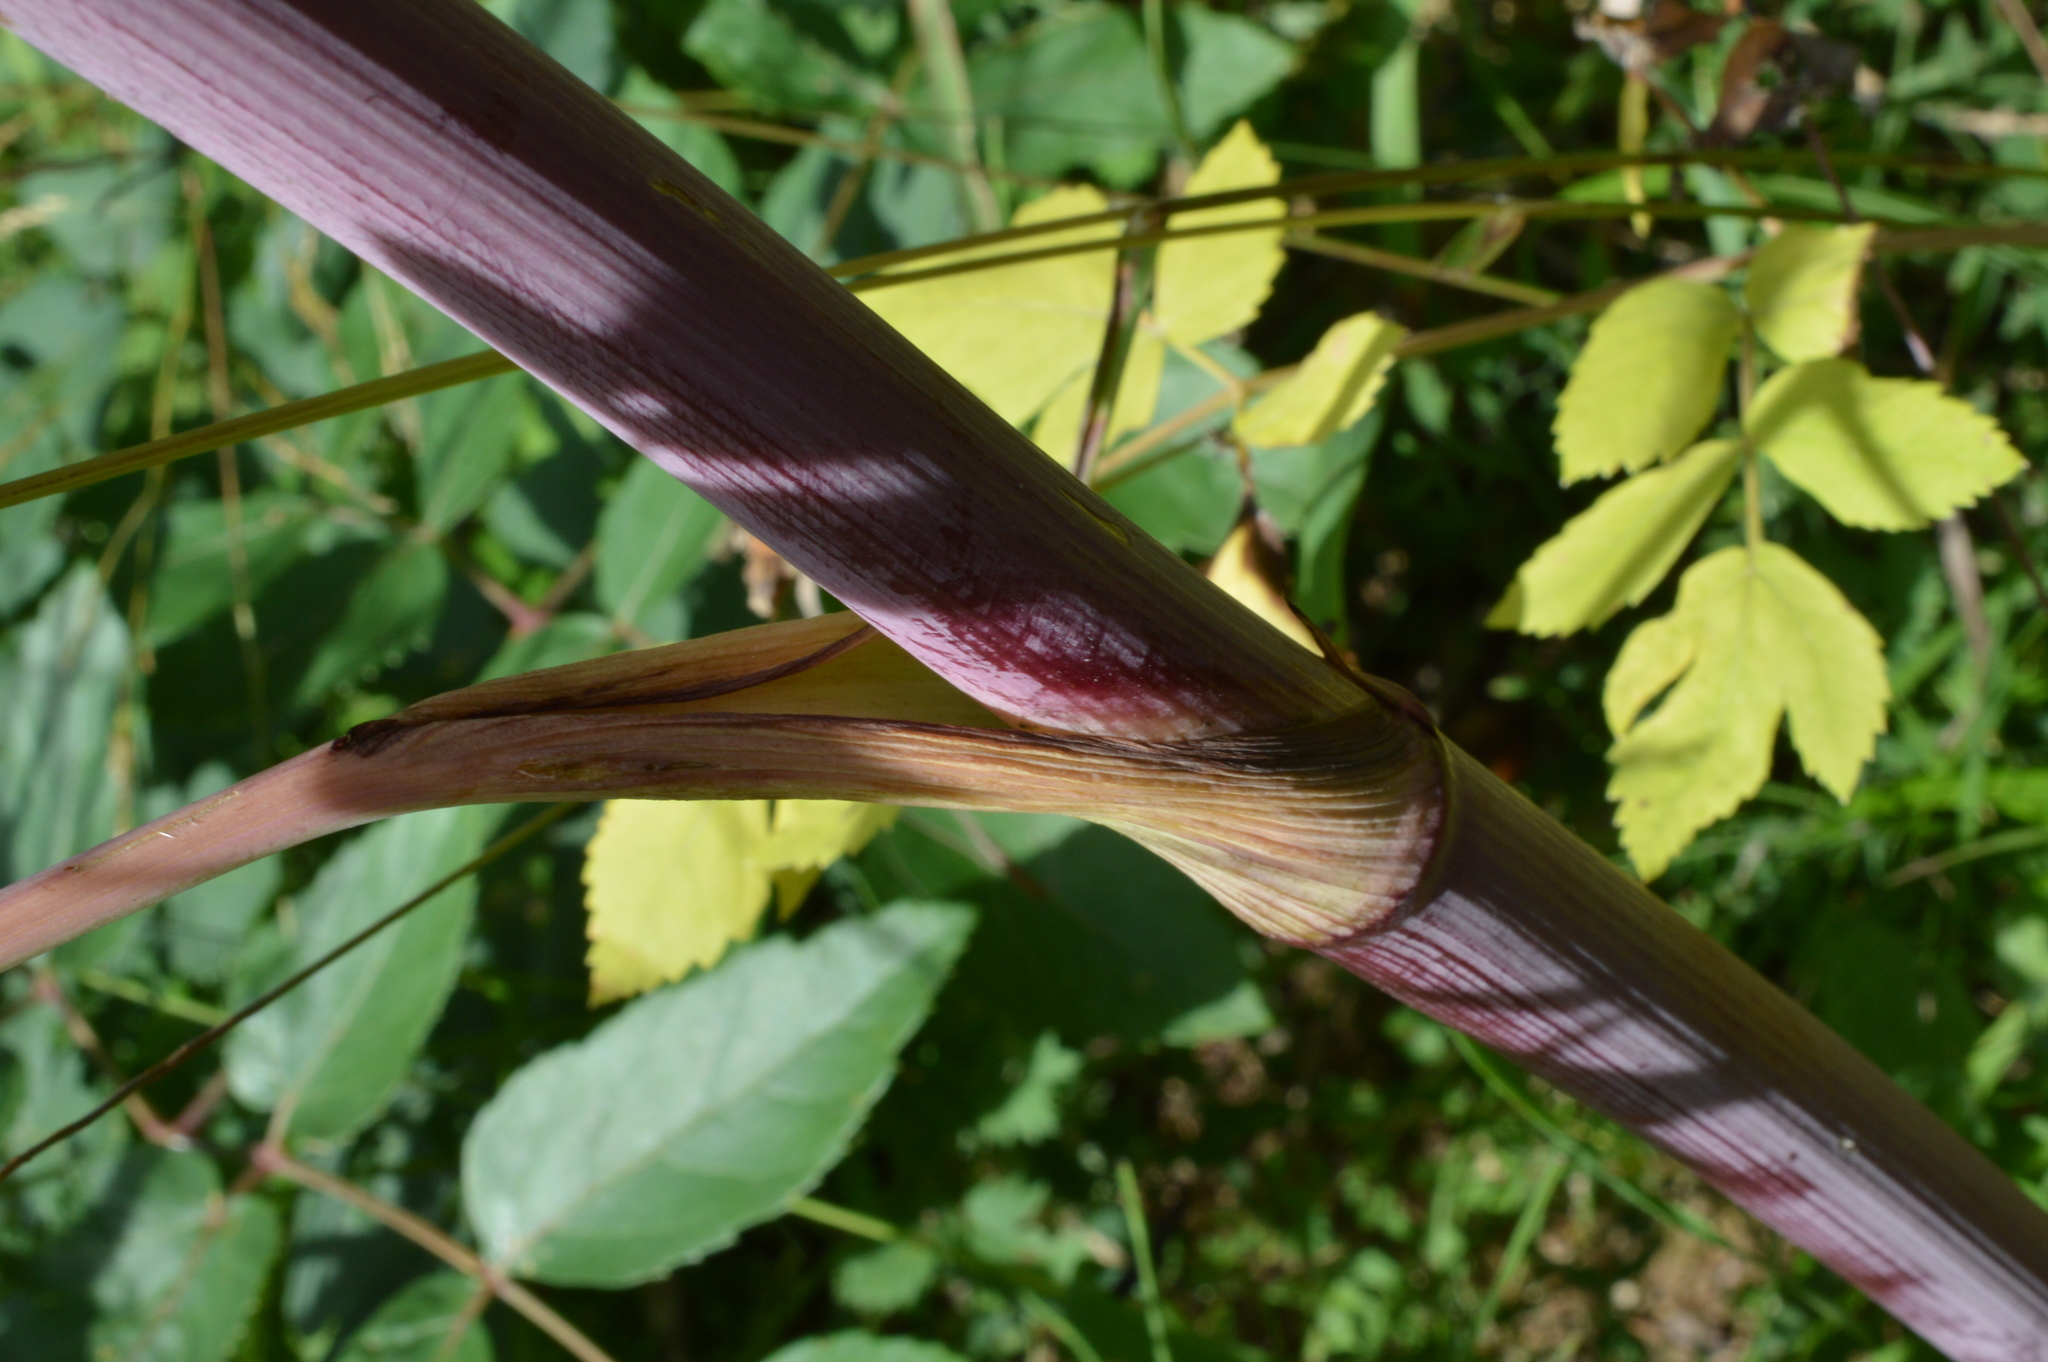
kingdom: Plantae
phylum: Tracheophyta
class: Magnoliopsida
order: Apiales
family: Apiaceae
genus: Peucedanum
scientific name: Peucedanum verticillare
